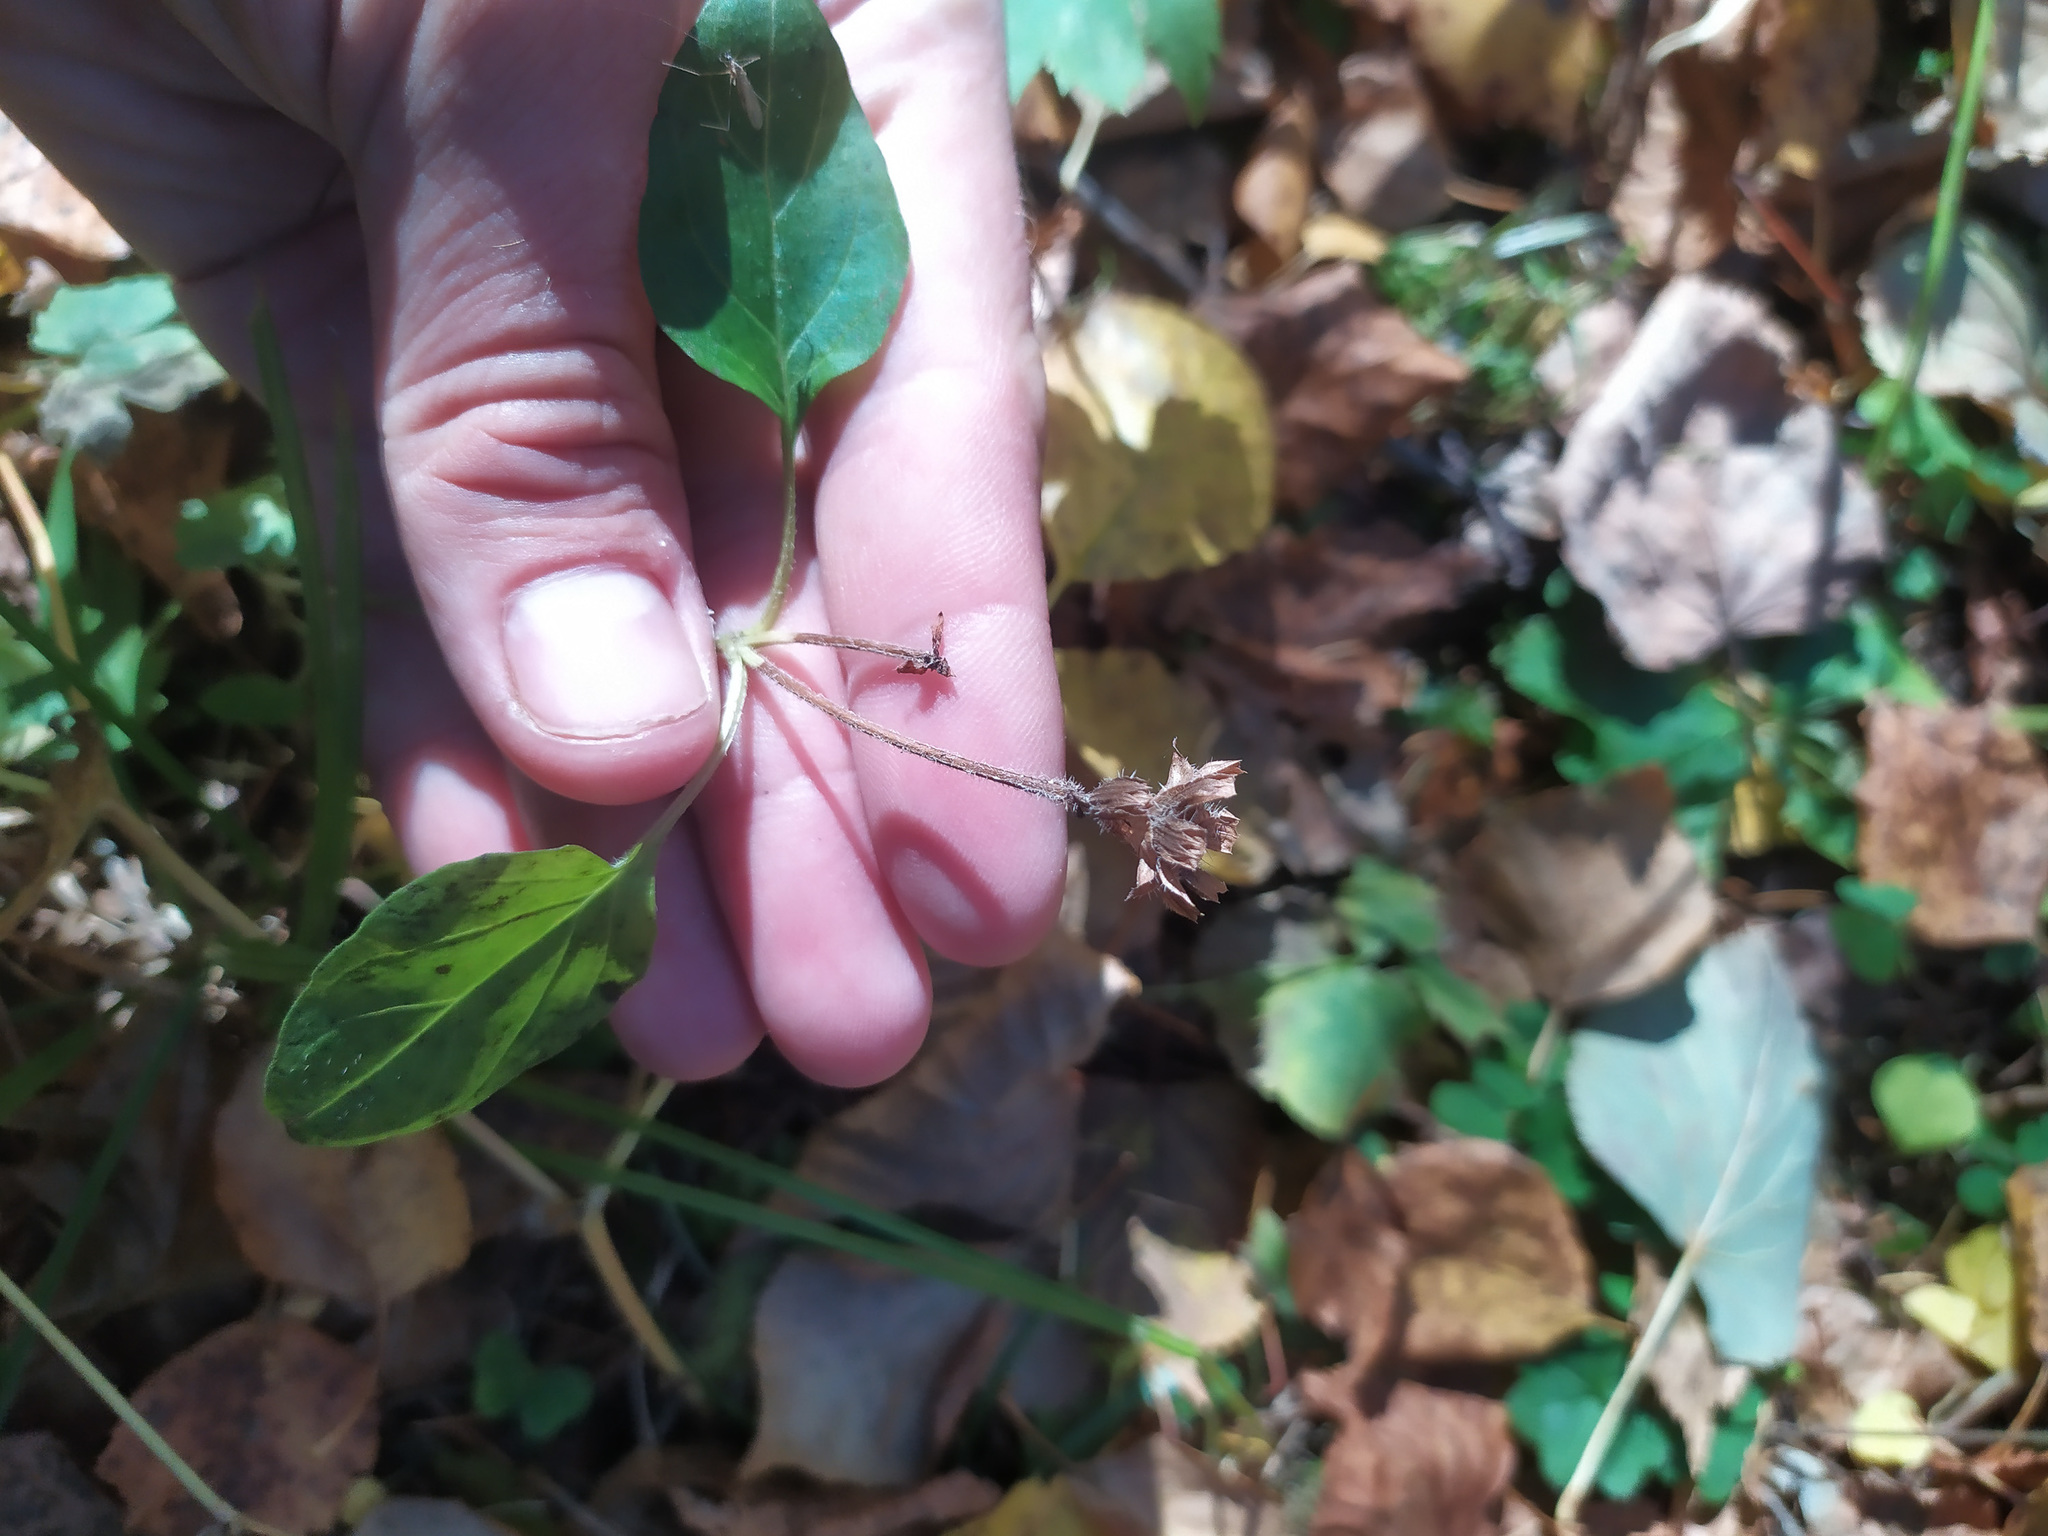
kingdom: Plantae
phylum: Tracheophyta
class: Magnoliopsida
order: Lamiales
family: Lamiaceae
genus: Prunella
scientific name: Prunella vulgaris
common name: Heal-all
